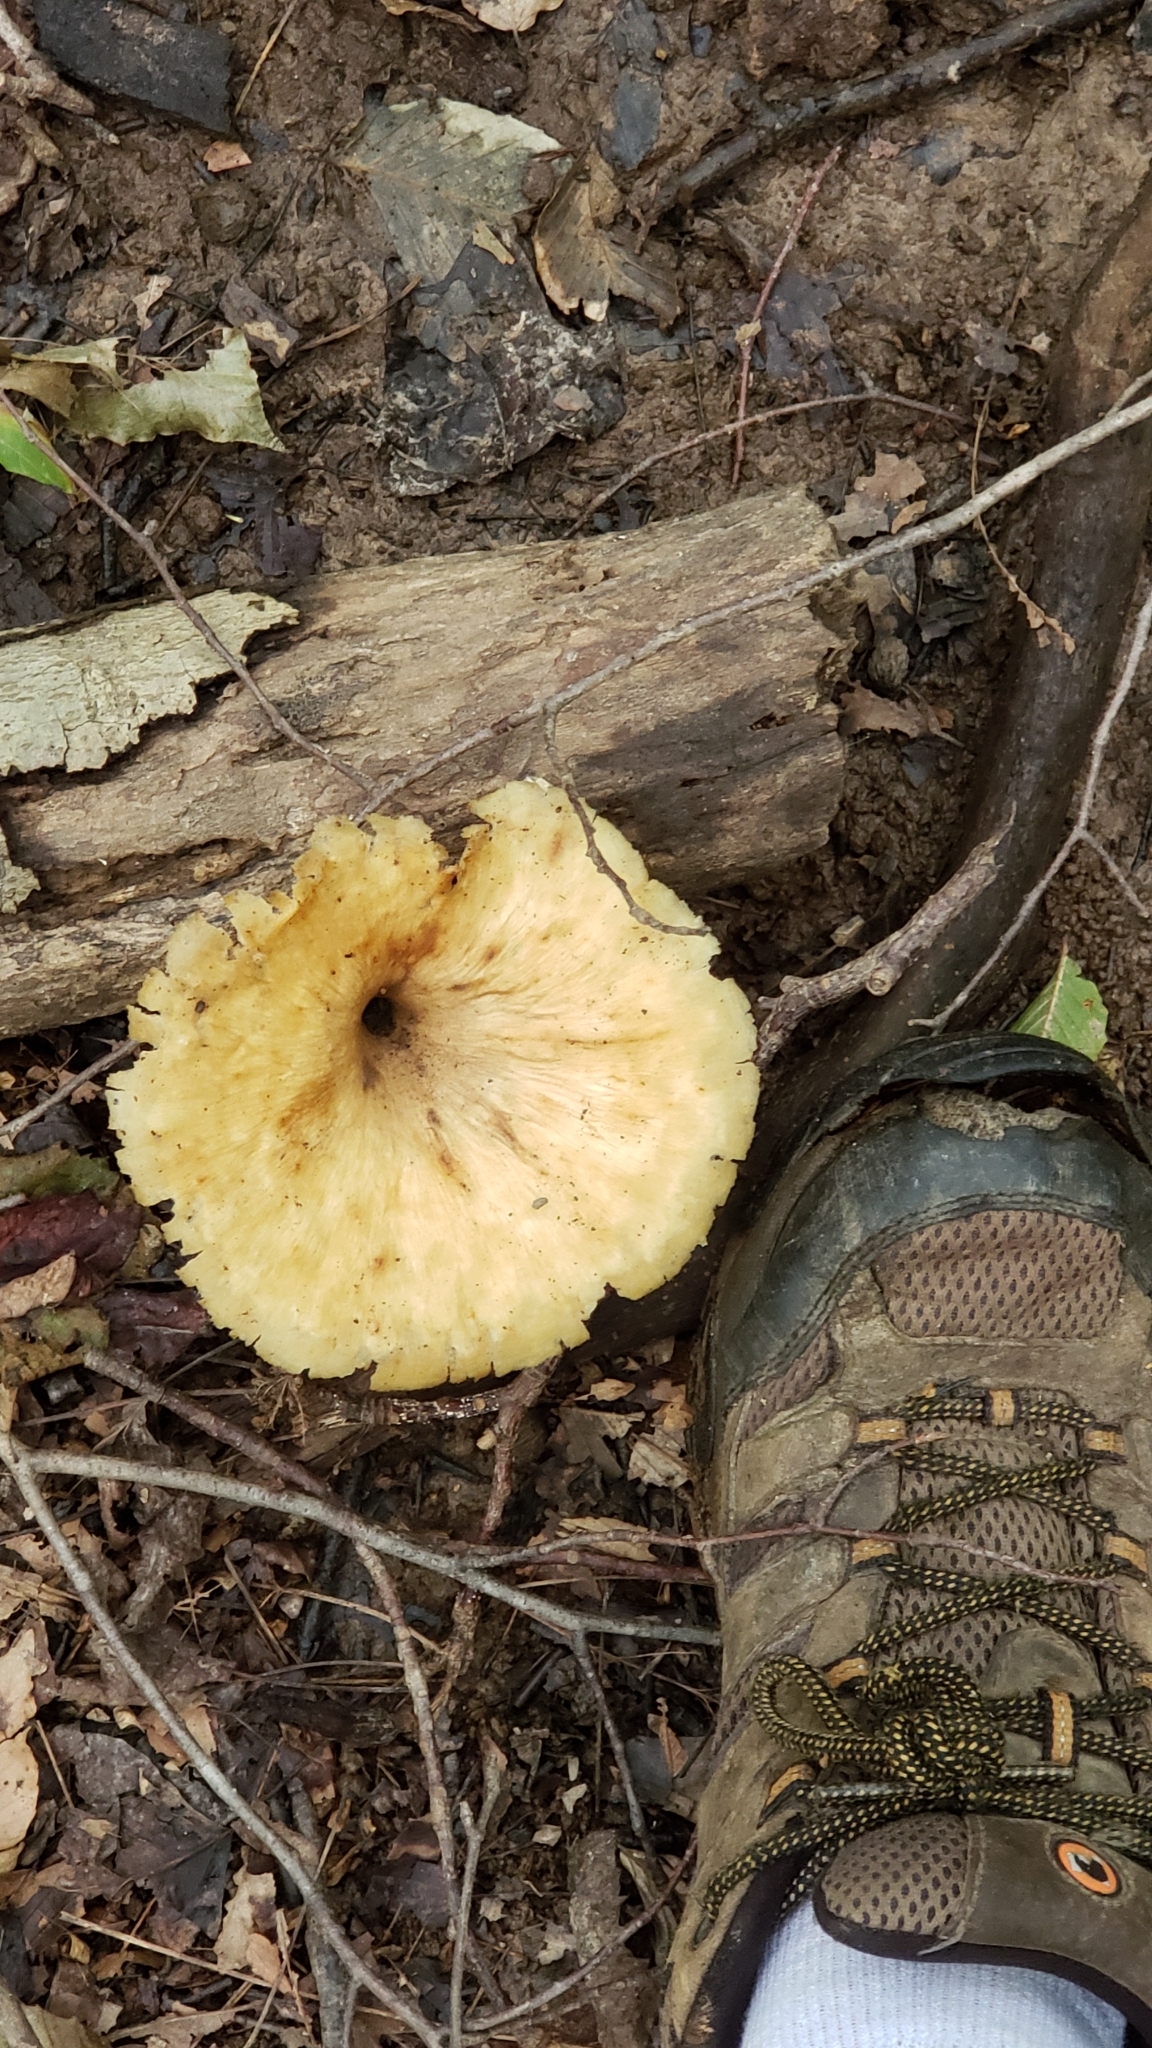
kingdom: Fungi
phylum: Basidiomycota
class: Agaricomycetes
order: Agaricales
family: Marasmiaceae
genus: Gerronema
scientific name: Gerronema strombodes
